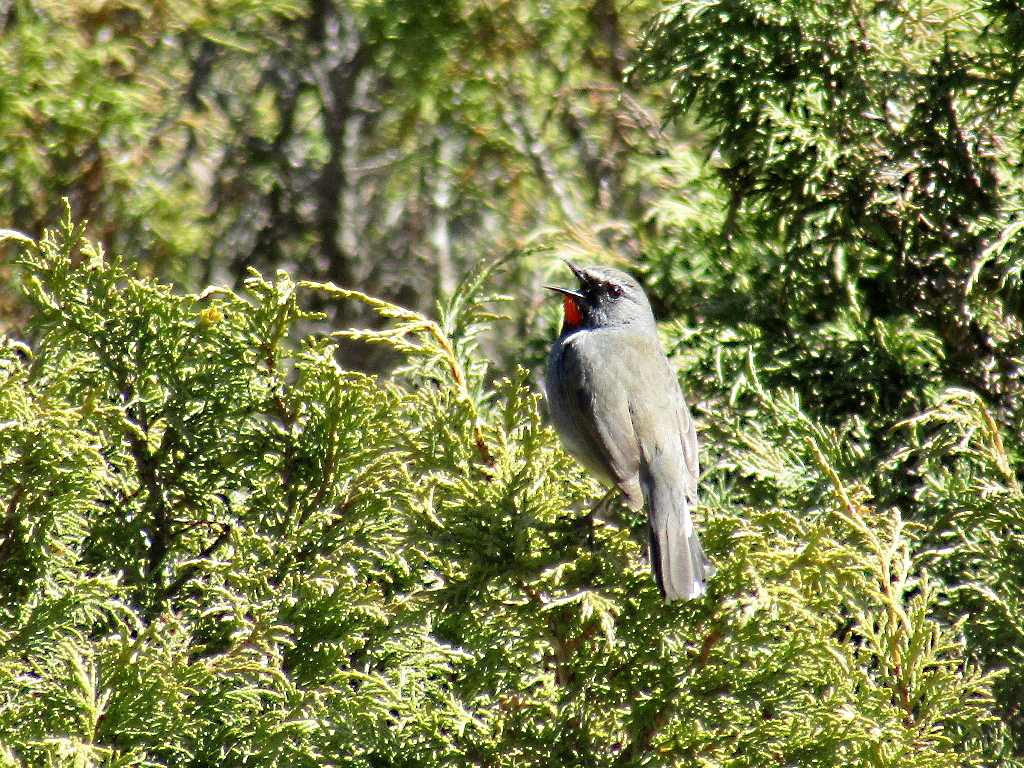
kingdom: Animalia
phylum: Chordata
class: Aves
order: Passeriformes
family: Muscicapidae
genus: Luscinia
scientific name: Luscinia pectoralis
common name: White-tailed rubythroat
